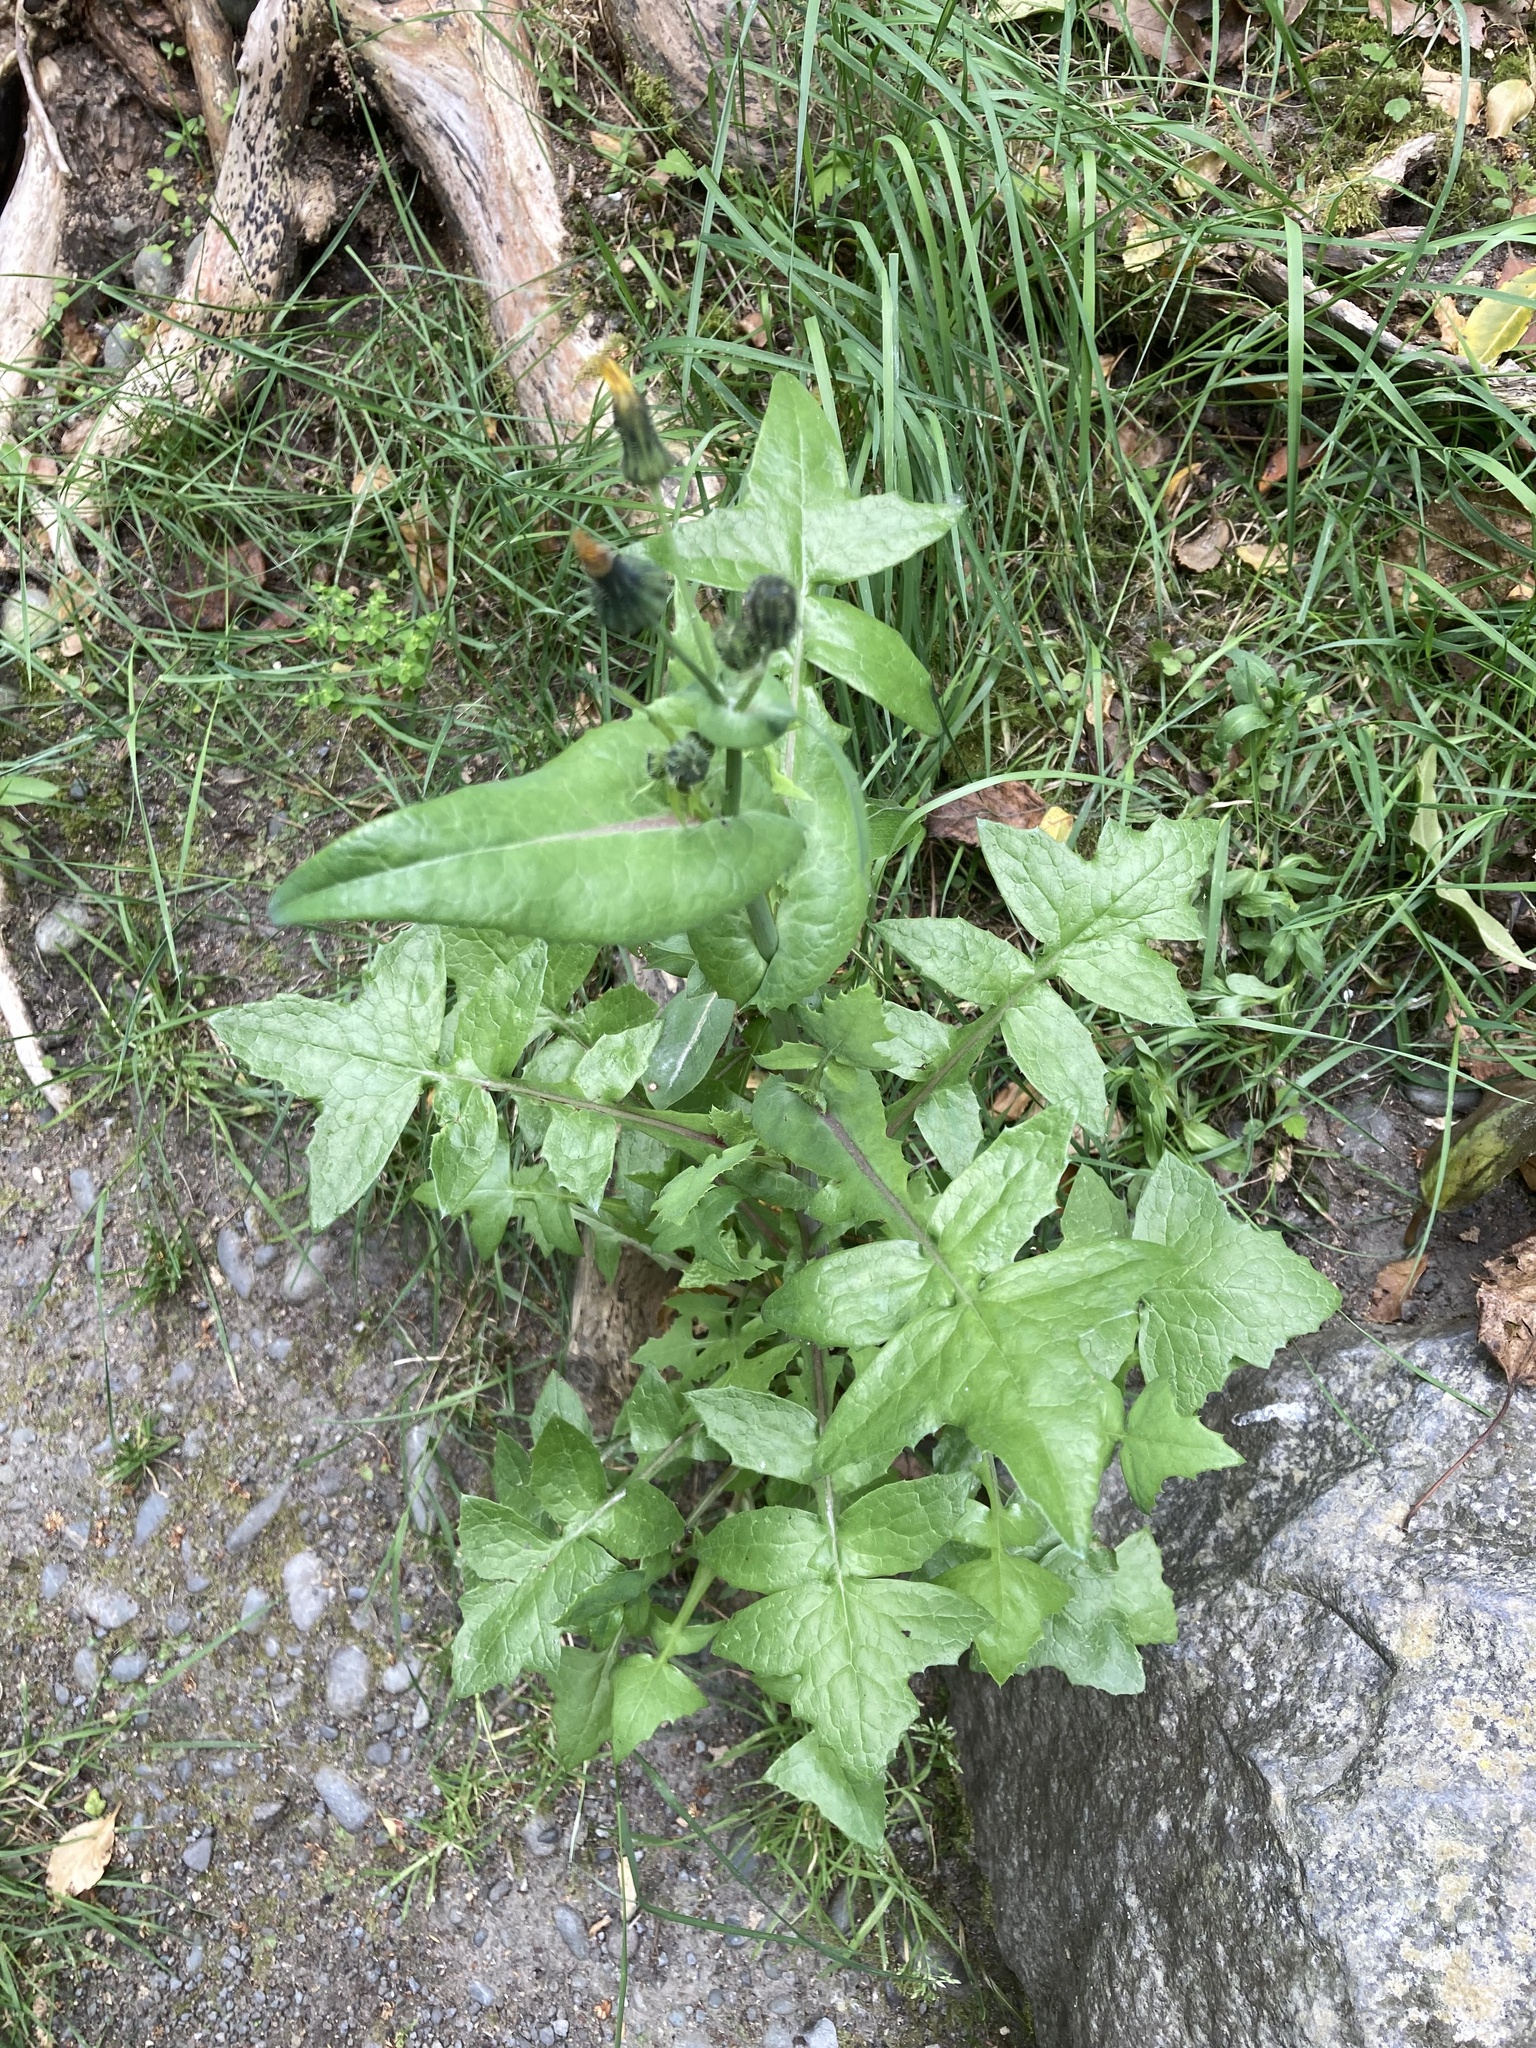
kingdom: Plantae
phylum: Tracheophyta
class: Magnoliopsida
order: Asterales
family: Asteraceae
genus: Sonchus
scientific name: Sonchus oleraceus
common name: Common sowthistle
